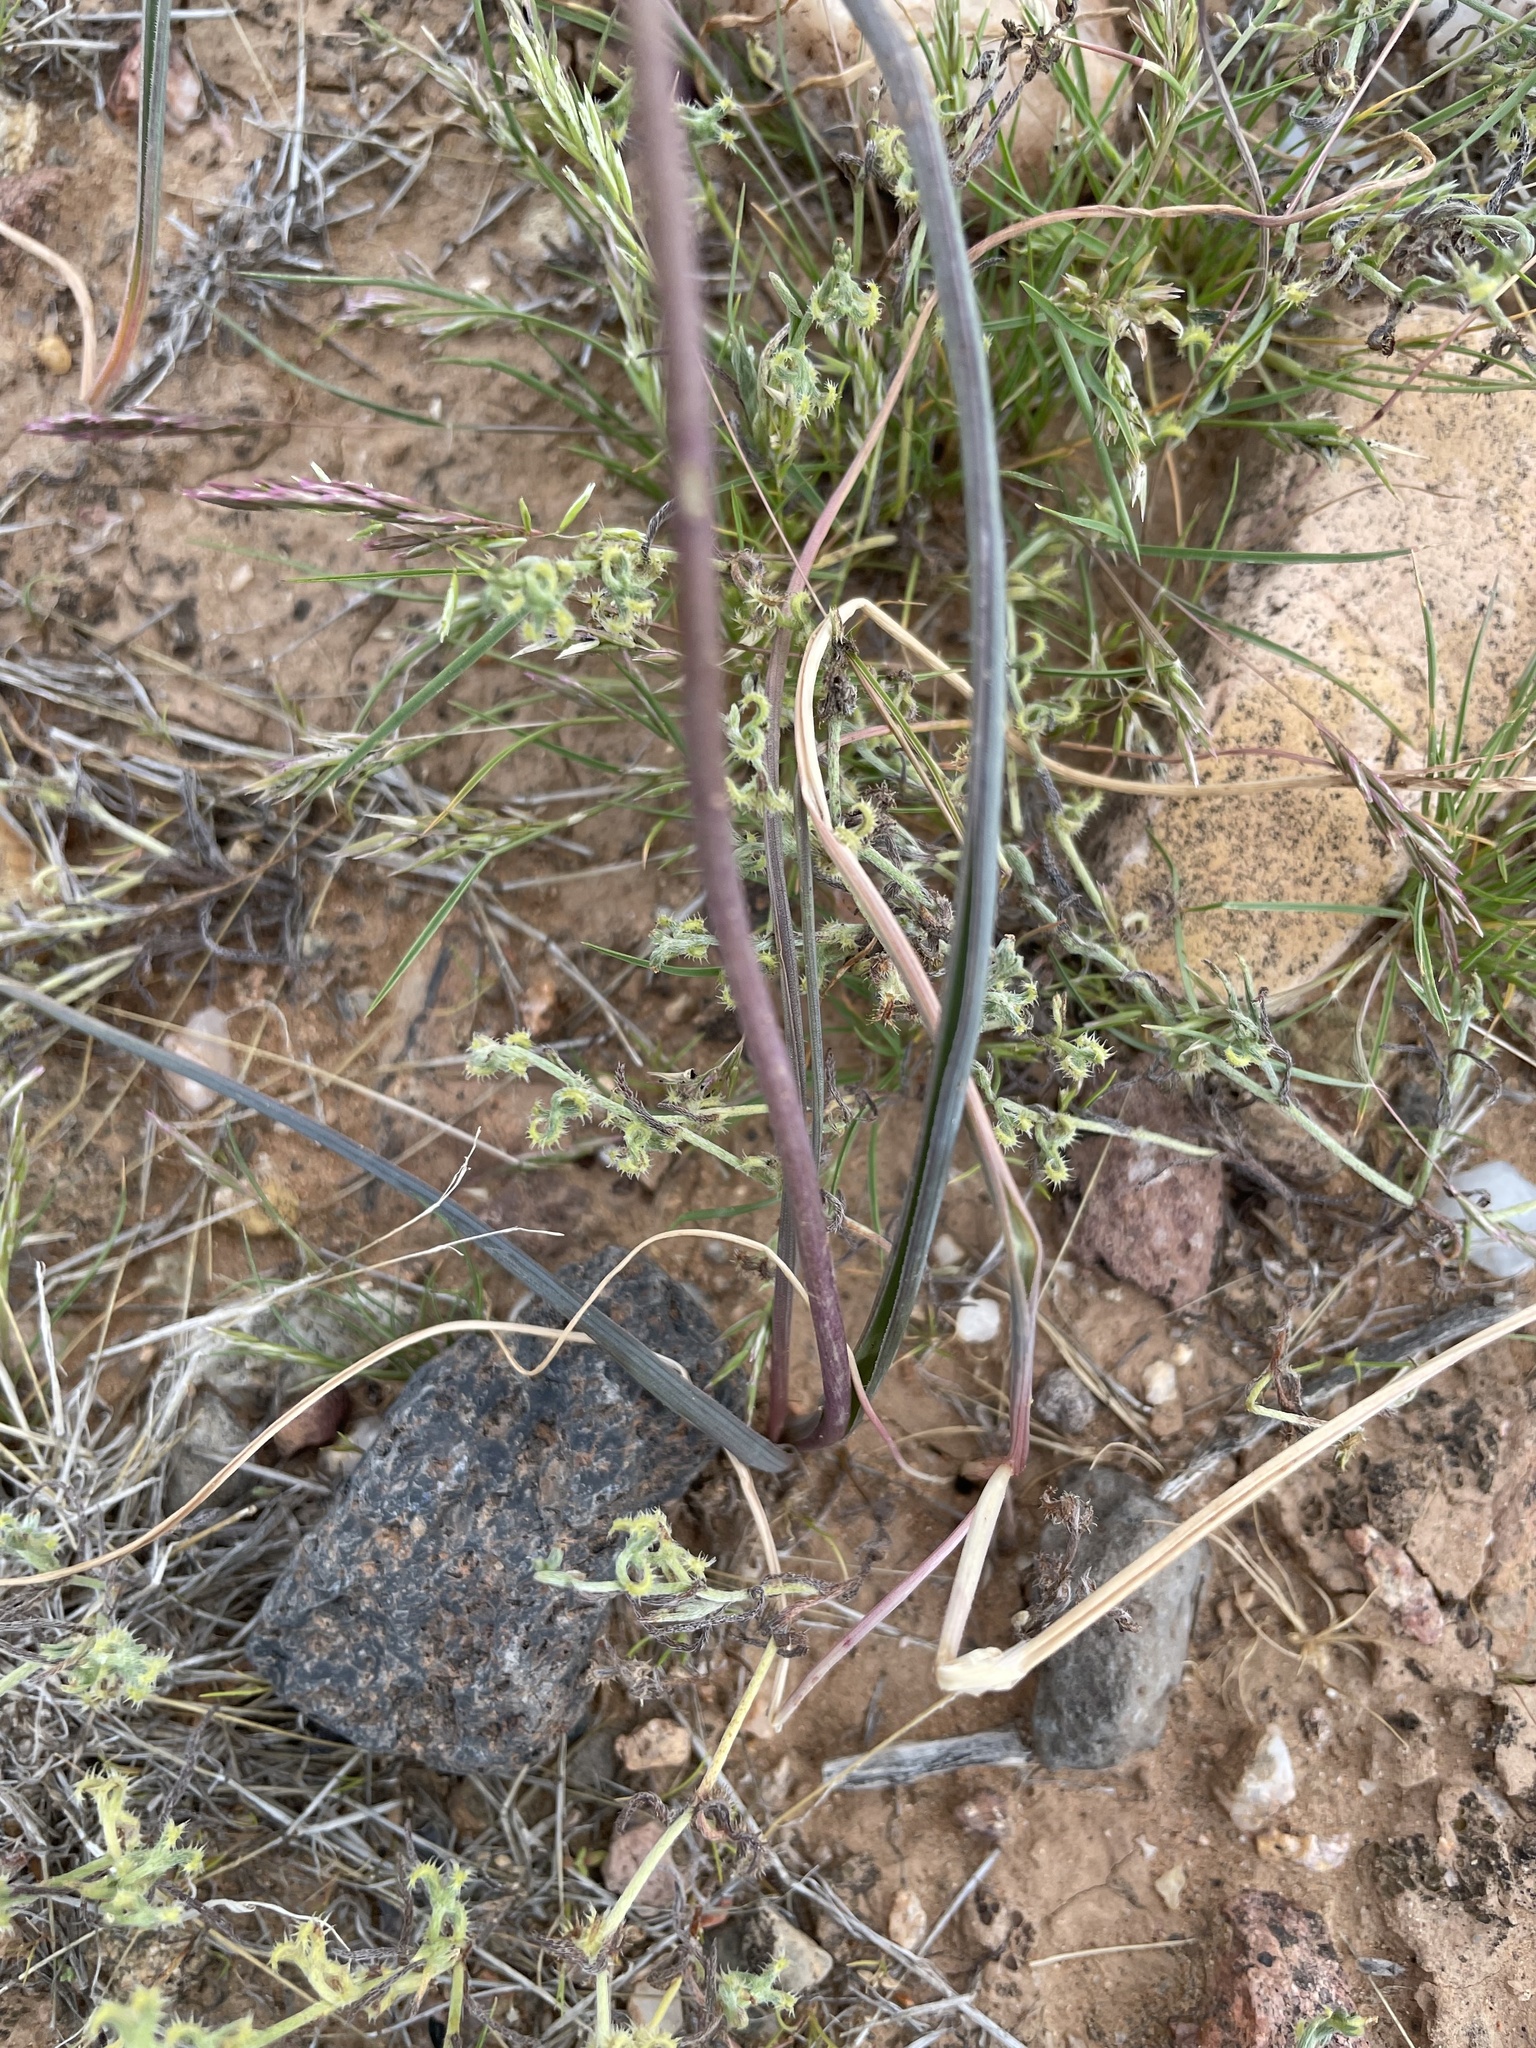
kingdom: Plantae
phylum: Tracheophyta
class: Liliopsida
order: Asparagales
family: Asparagaceae
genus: Dipterostemon
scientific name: Dipterostemon capitatus
